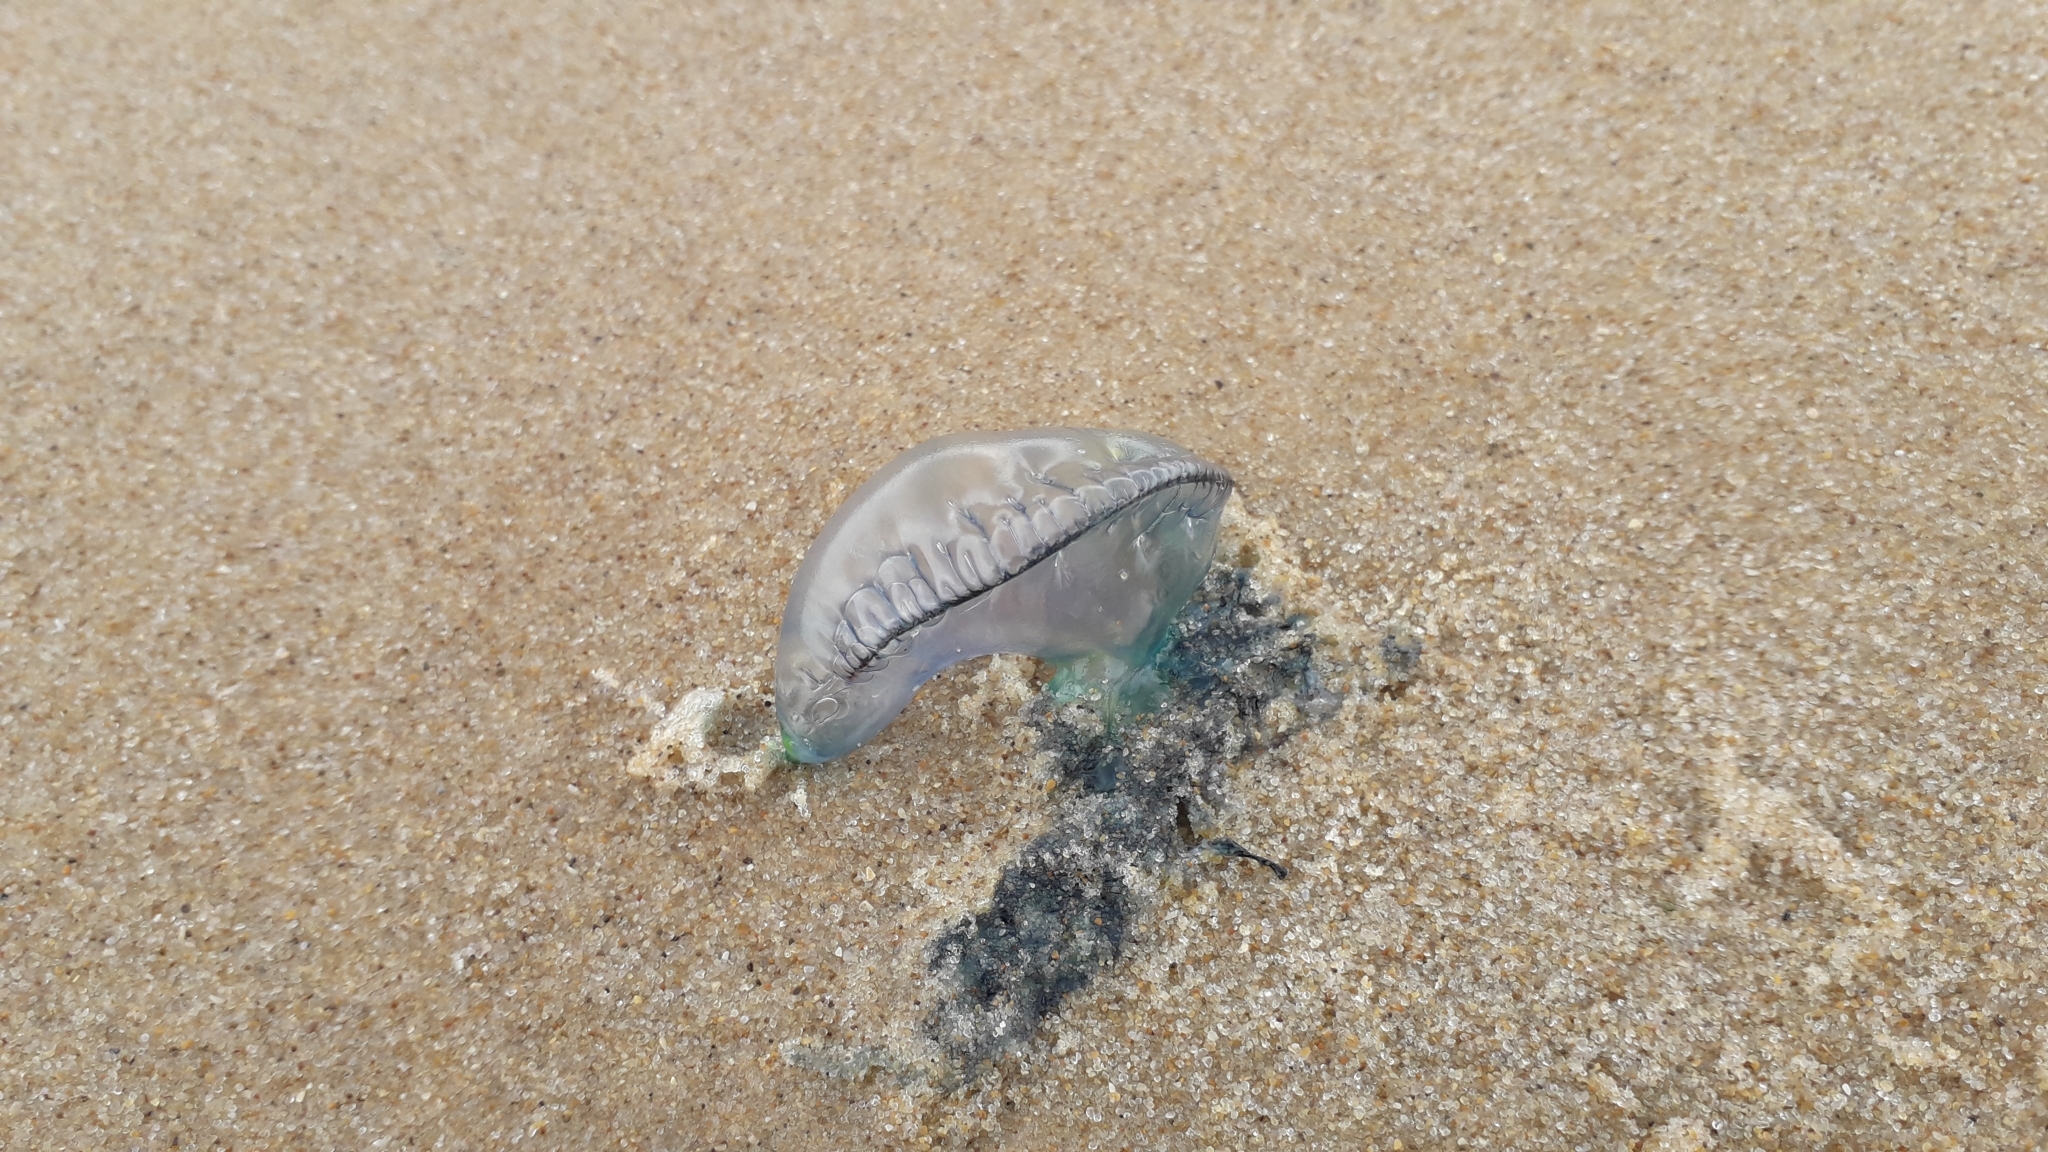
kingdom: Animalia
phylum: Cnidaria
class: Hydrozoa
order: Siphonophorae
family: Physaliidae
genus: Physalia
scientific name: Physalia physalis
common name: Portuguese man-of-war
